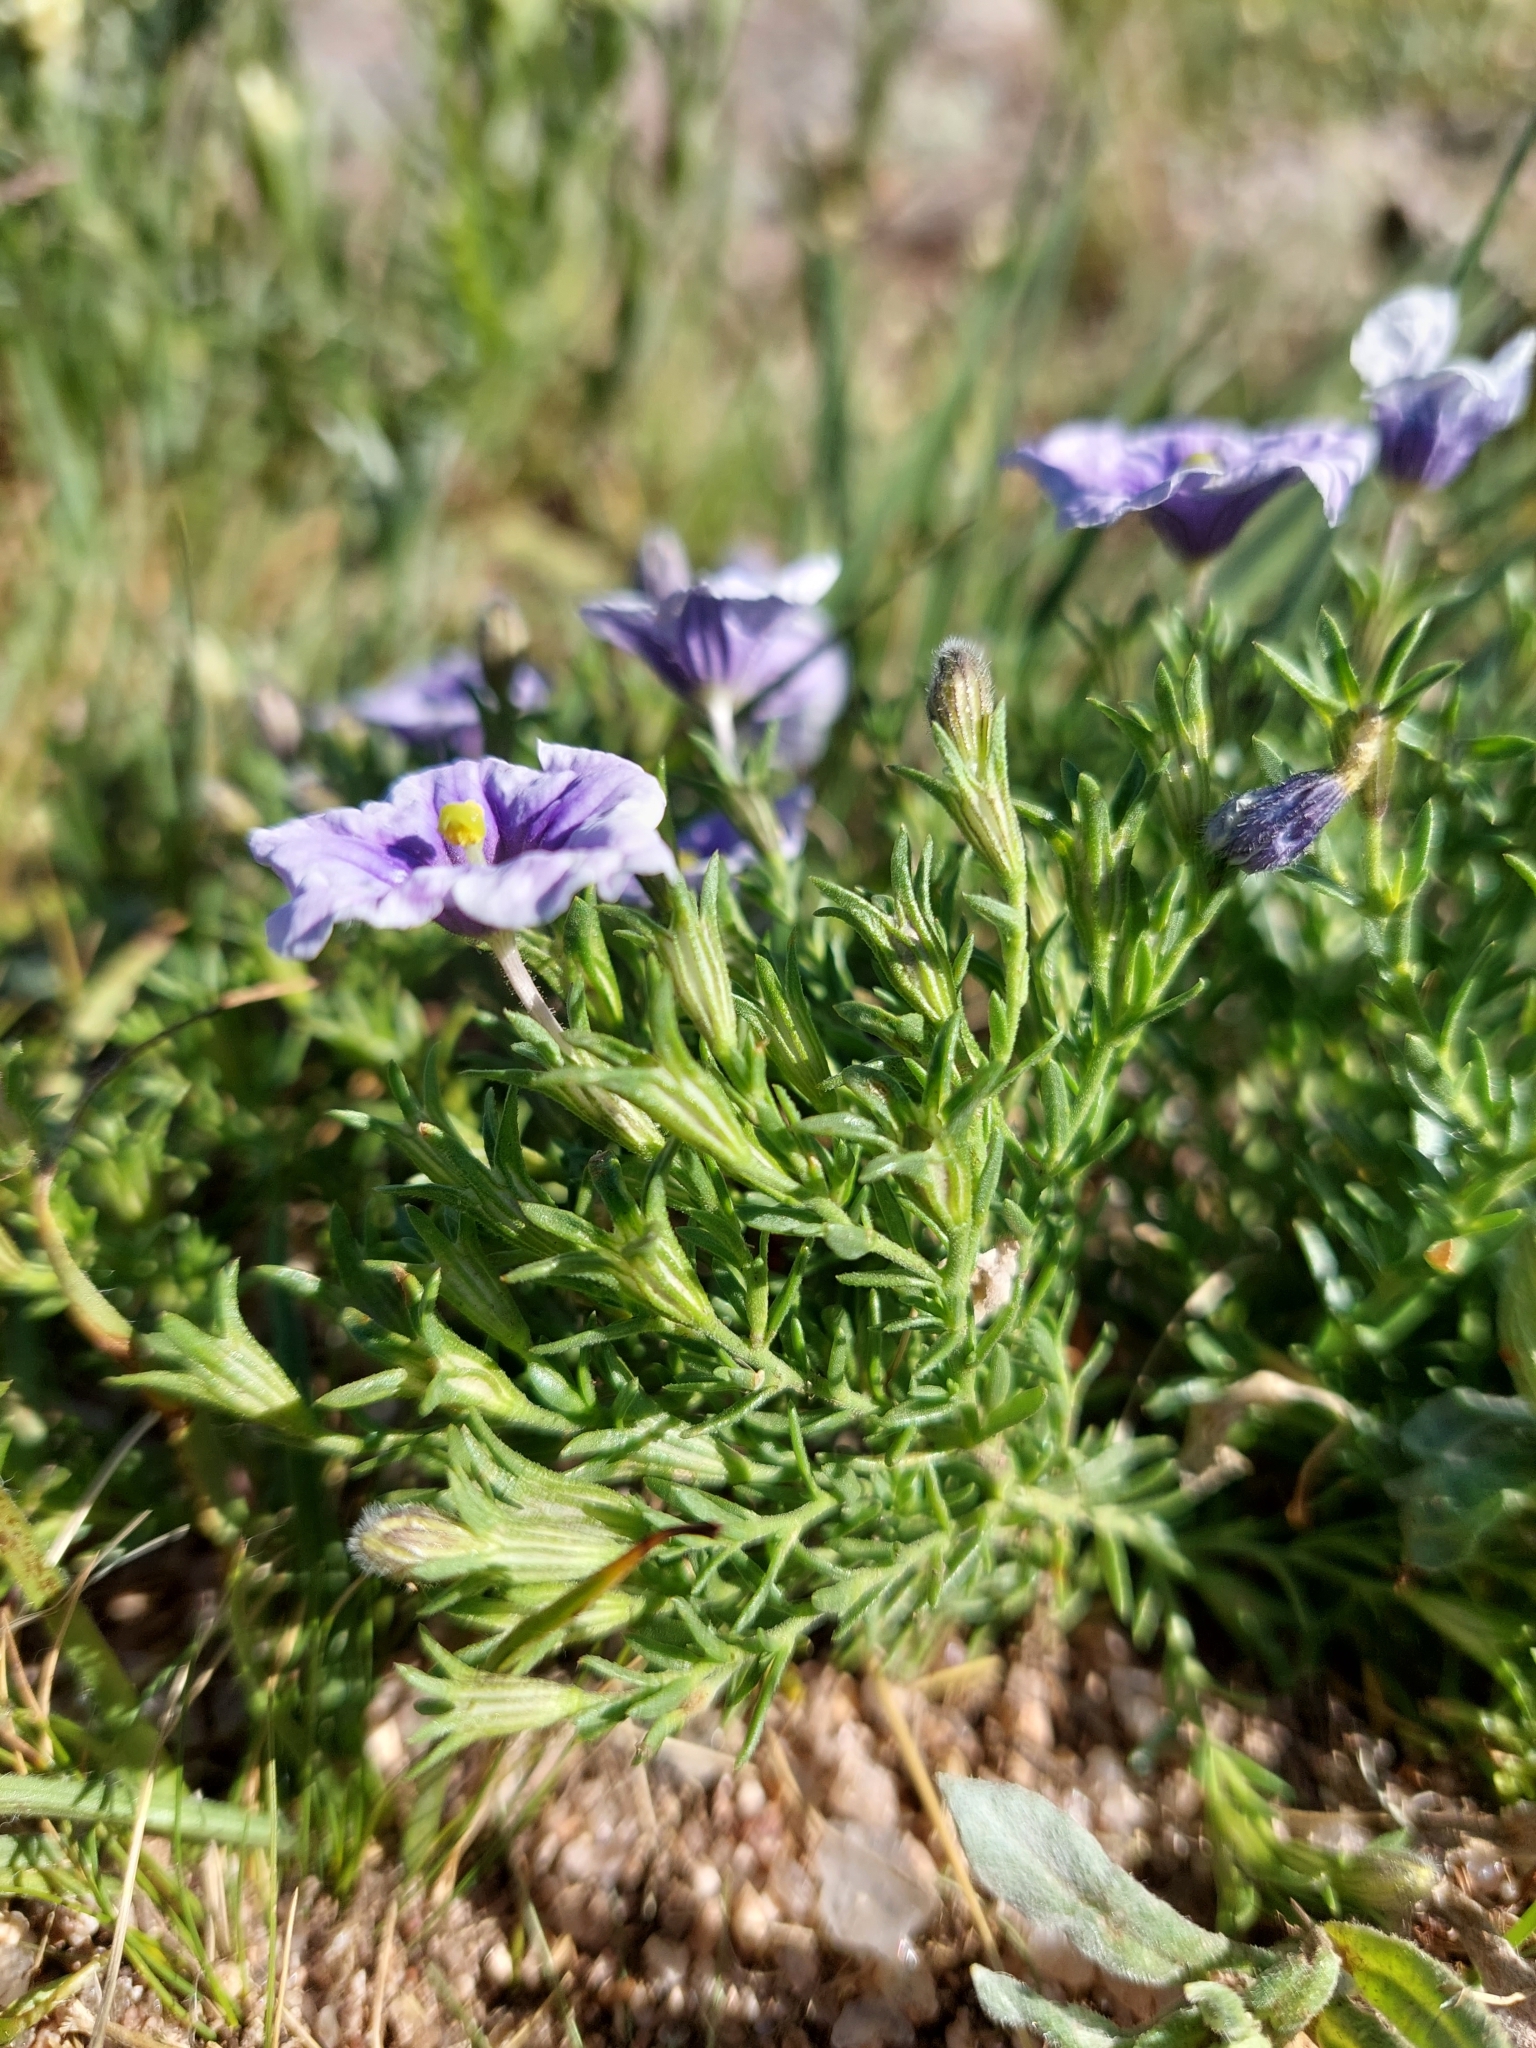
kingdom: Plantae
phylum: Tracheophyta
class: Magnoliopsida
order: Solanales
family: Solanaceae
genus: Nierembergia
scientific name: Nierembergia linariifolia
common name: Dwarf cupflower
